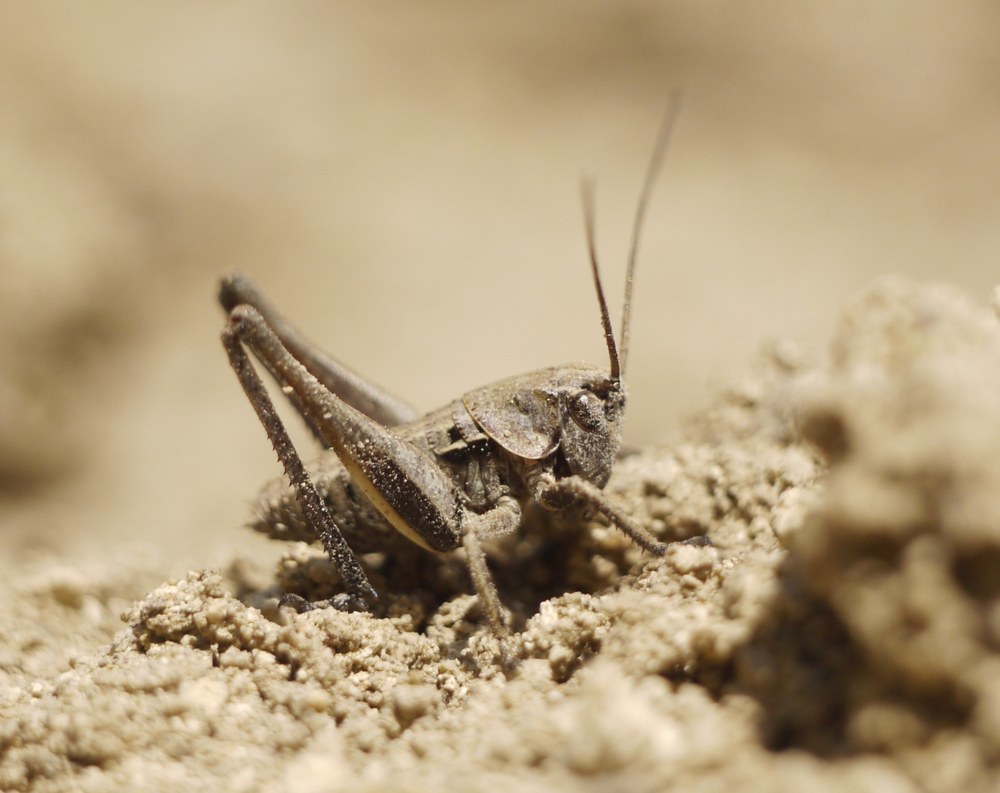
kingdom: Animalia
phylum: Arthropoda
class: Insecta
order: Orthoptera
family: Tettigoniidae
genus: Decticus
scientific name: Decticus verrucivorus
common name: Wart-biter
